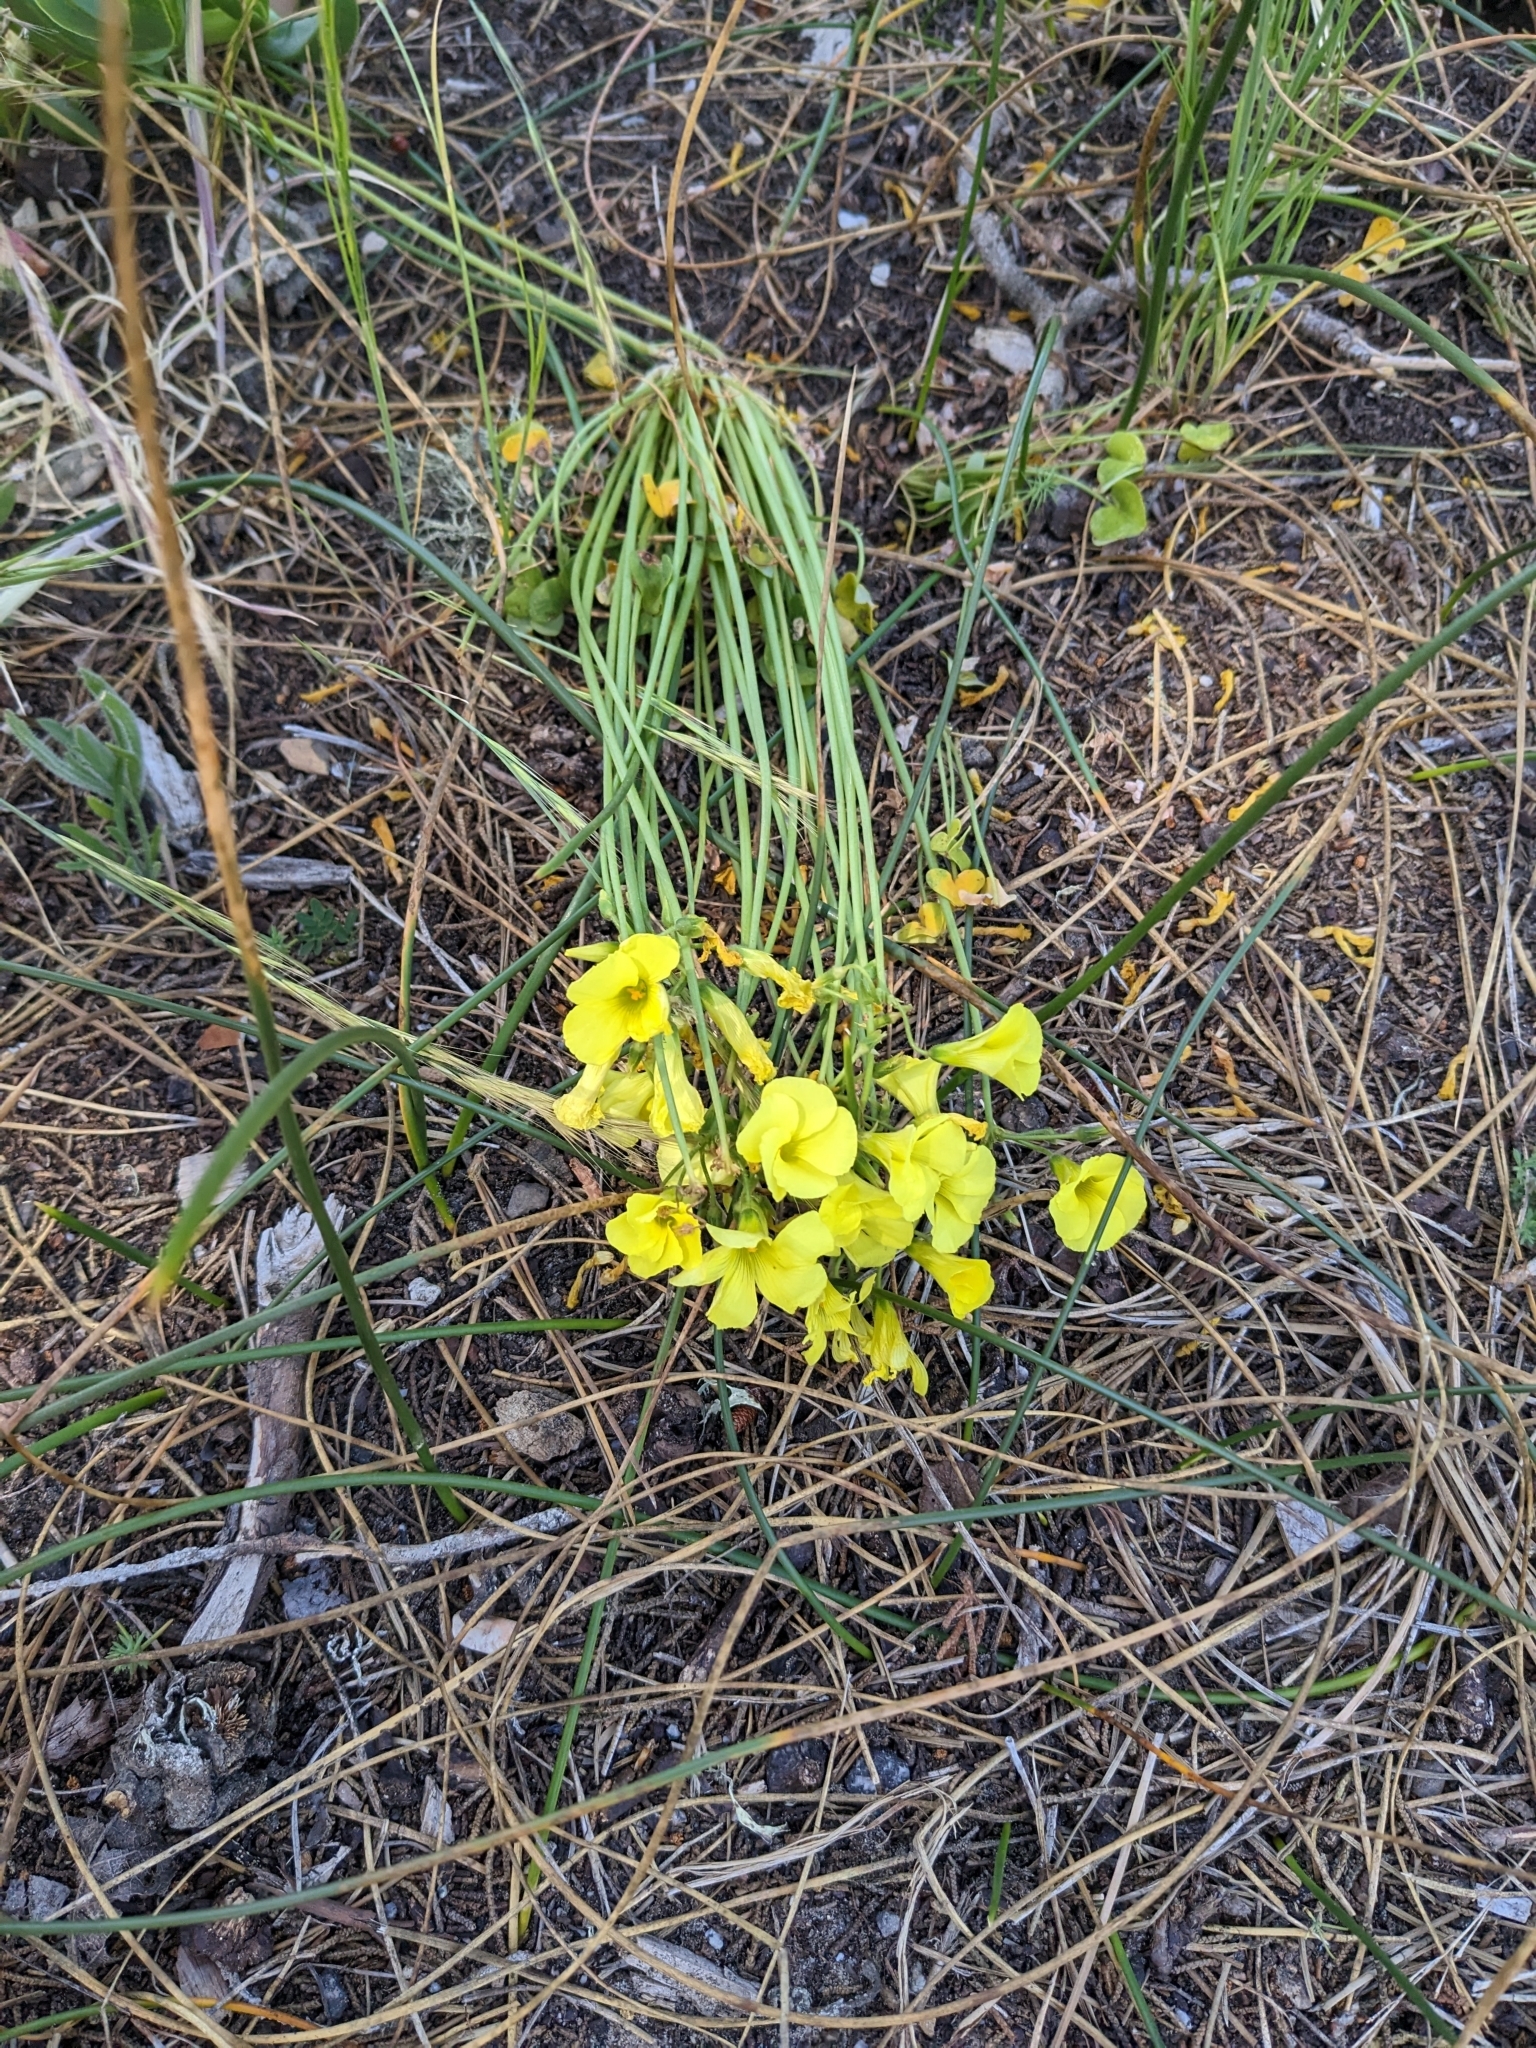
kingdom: Plantae
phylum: Tracheophyta
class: Magnoliopsida
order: Oxalidales
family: Oxalidaceae
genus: Oxalis
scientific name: Oxalis pes-caprae
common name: Bermuda-buttercup
